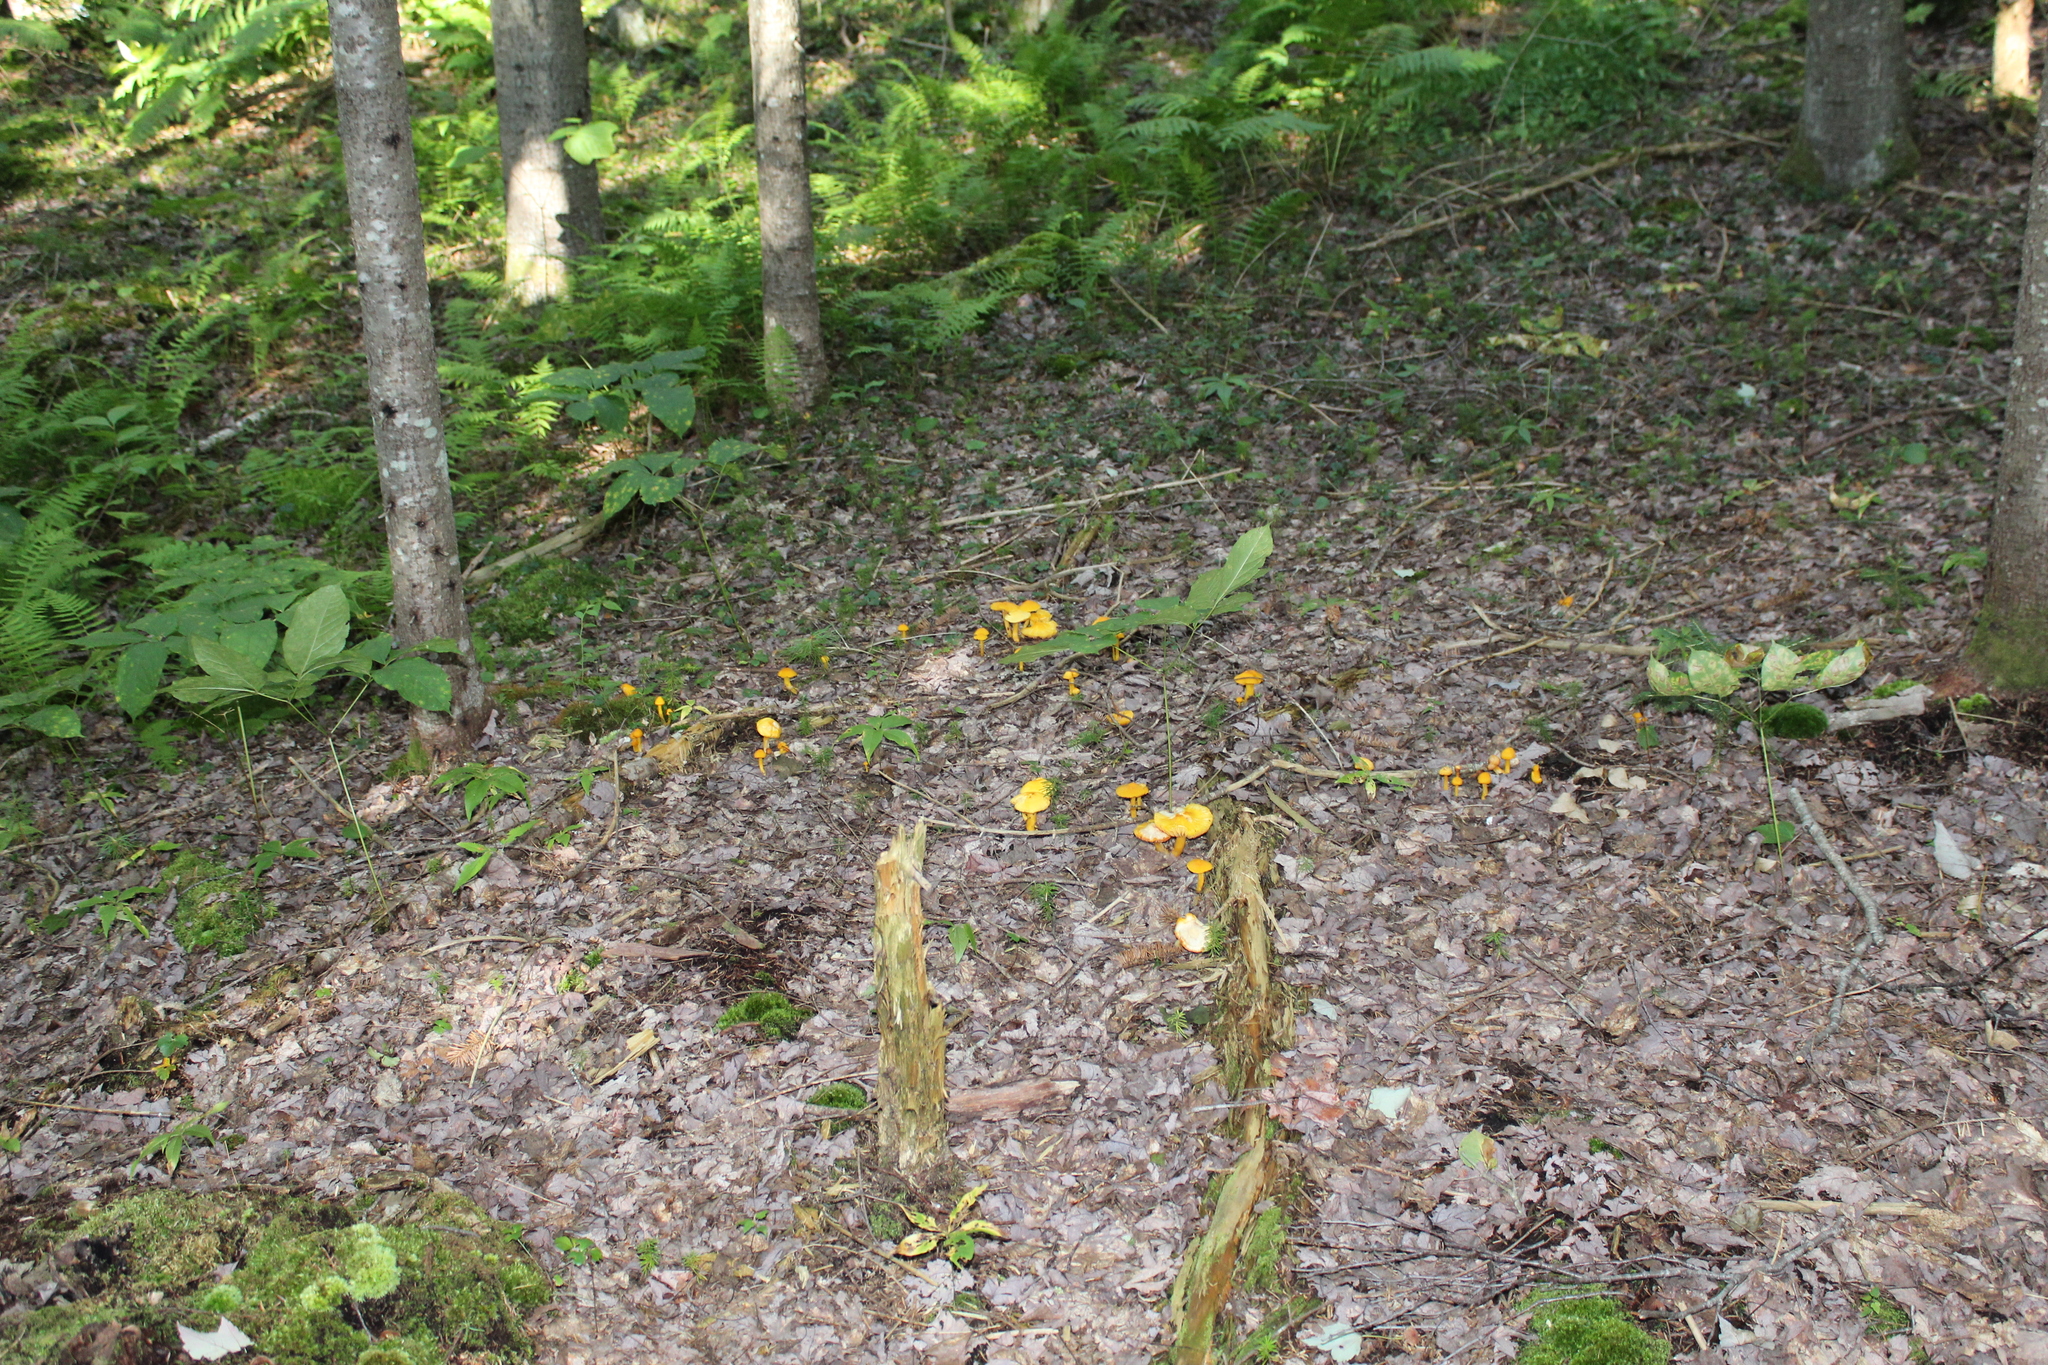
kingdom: Fungi
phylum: Basidiomycota
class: Agaricomycetes
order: Agaricales
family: Hygrophoraceae
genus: Humidicutis
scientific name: Humidicutis marginata
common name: Orange gilled waxcap
